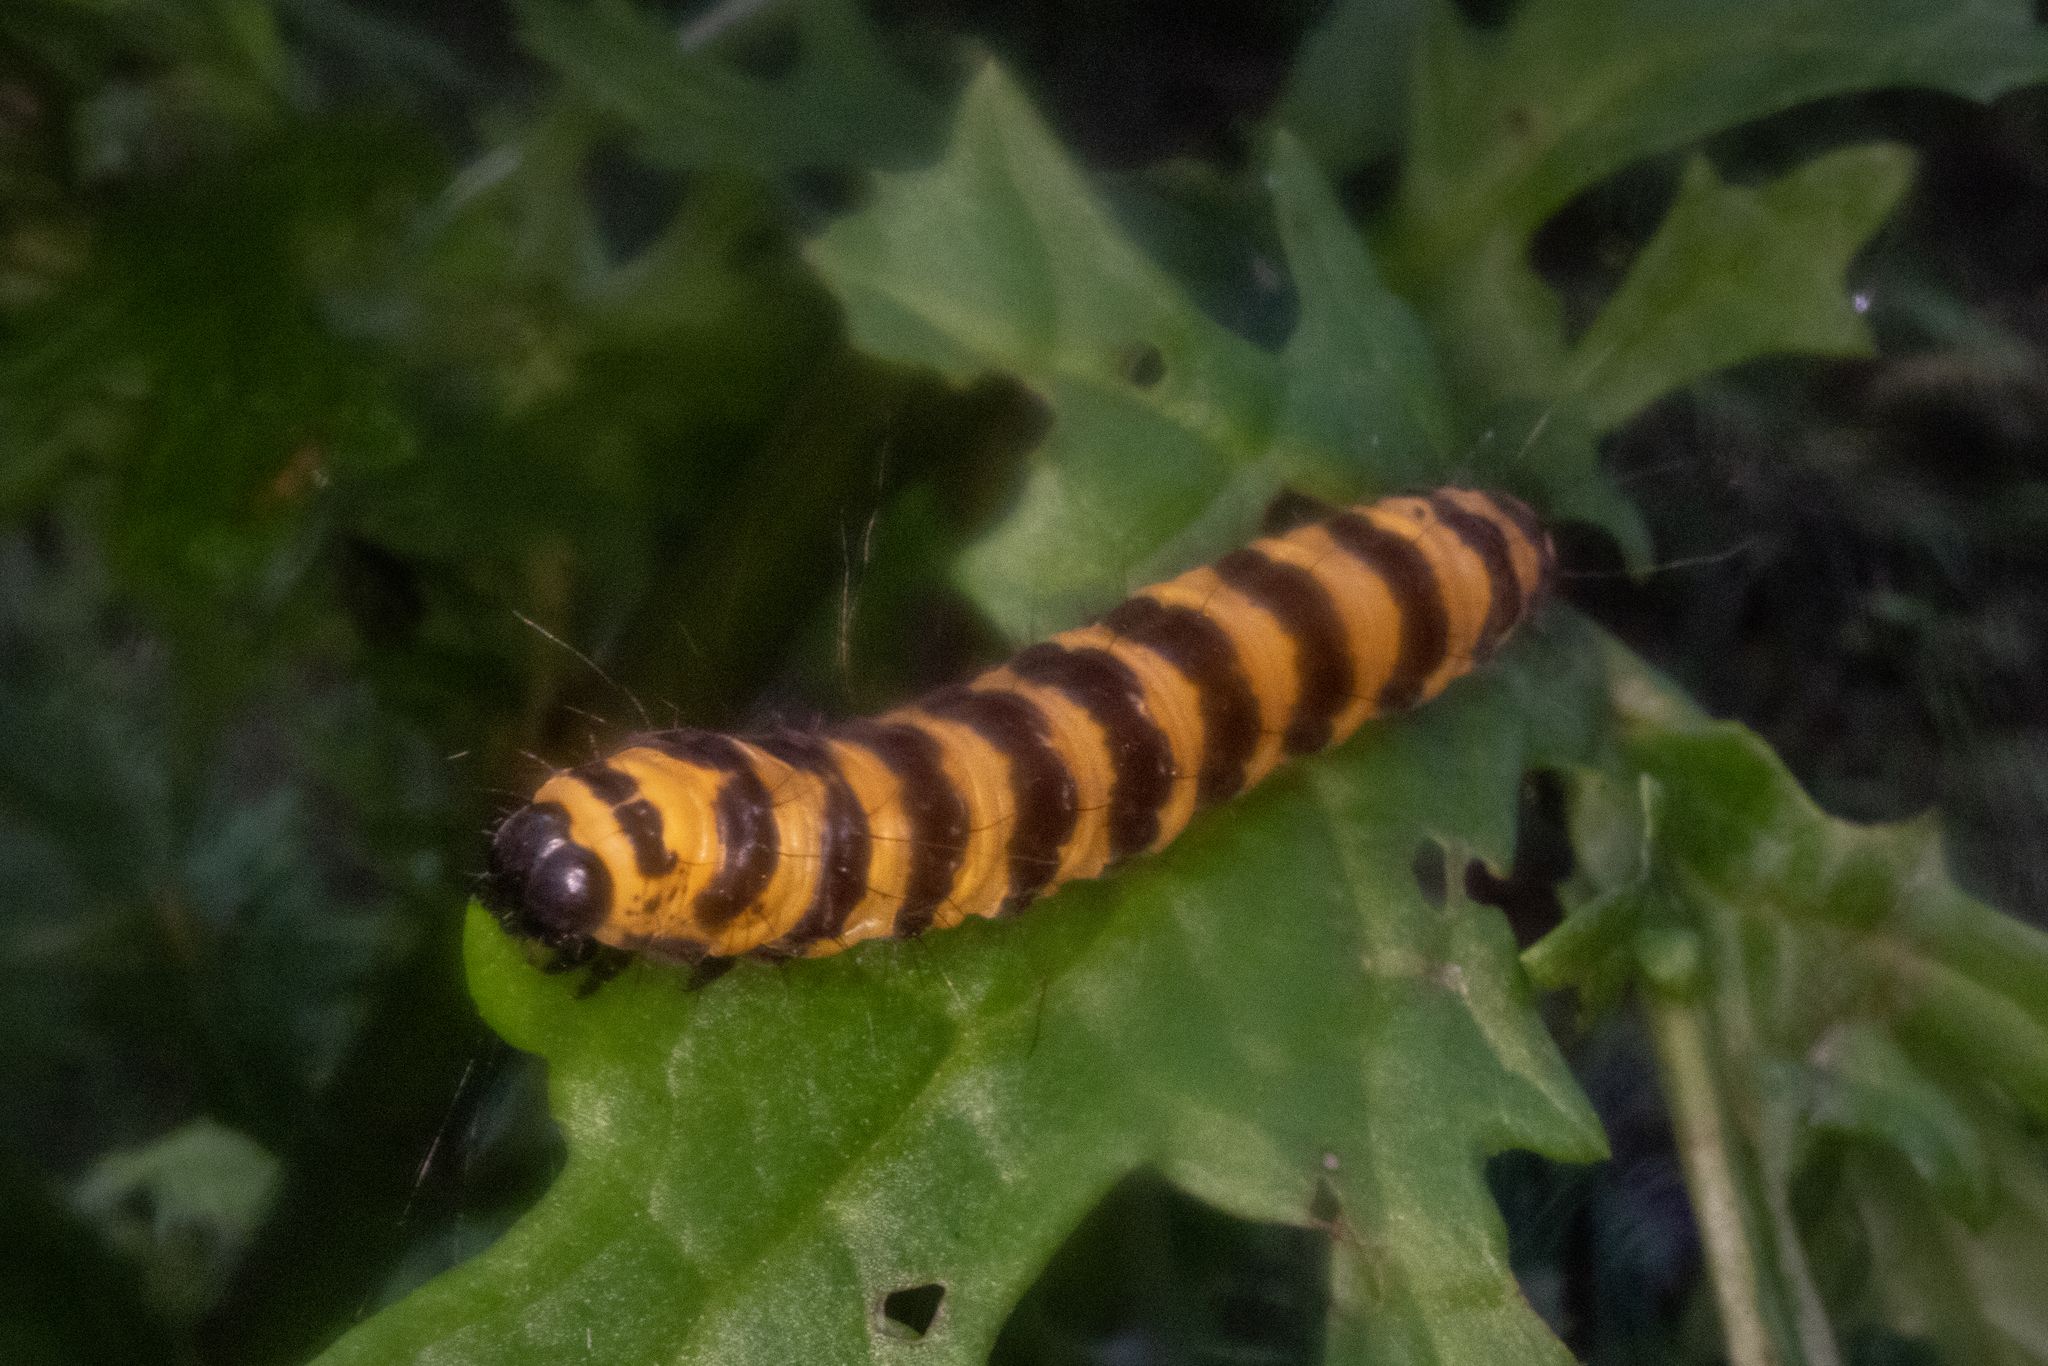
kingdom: Animalia
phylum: Arthropoda
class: Insecta
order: Lepidoptera
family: Erebidae
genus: Tyria
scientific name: Tyria jacobaeae
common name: Cinnabar
